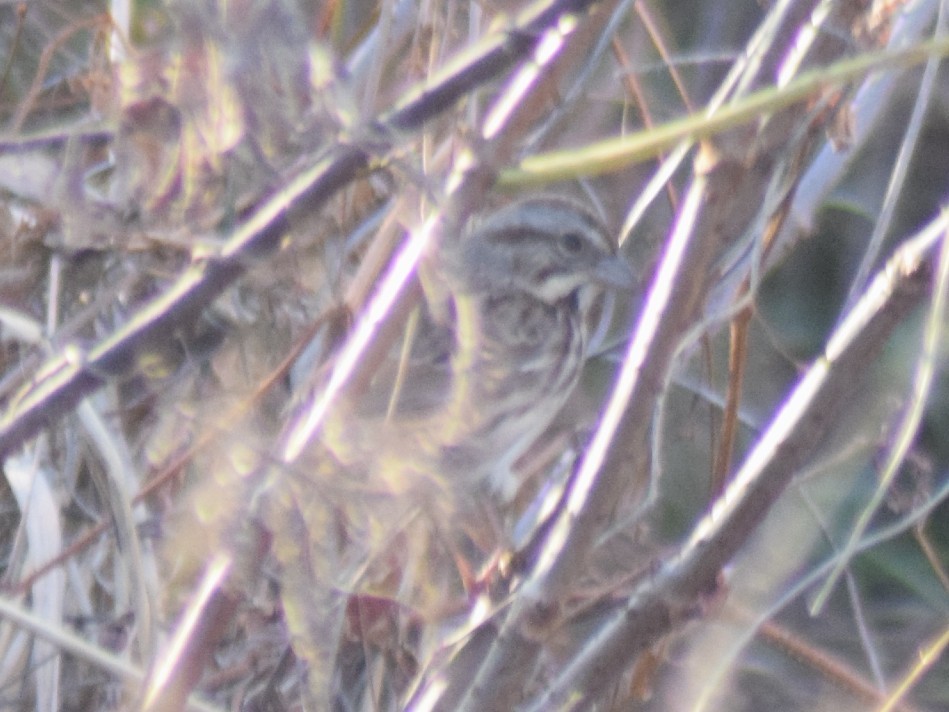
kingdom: Animalia
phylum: Chordata
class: Aves
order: Passeriformes
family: Passerellidae
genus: Melospiza
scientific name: Melospiza melodia
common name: Song sparrow
